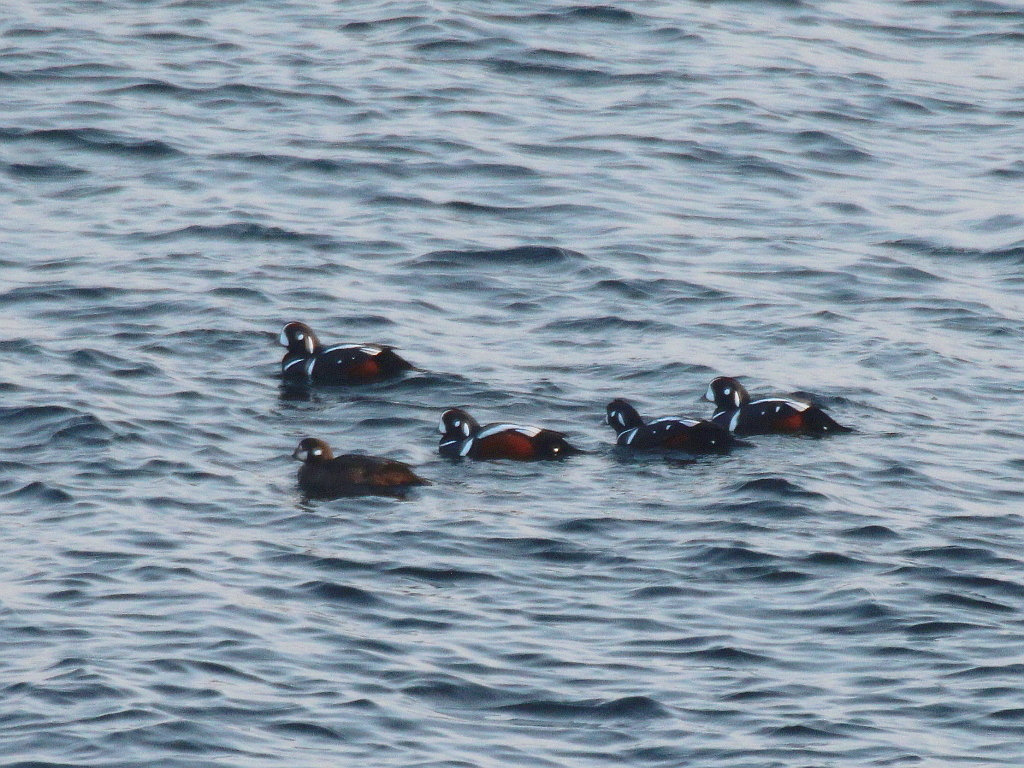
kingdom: Animalia
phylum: Chordata
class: Aves
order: Anseriformes
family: Anatidae
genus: Histrionicus
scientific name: Histrionicus histrionicus
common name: Harlequin duck
